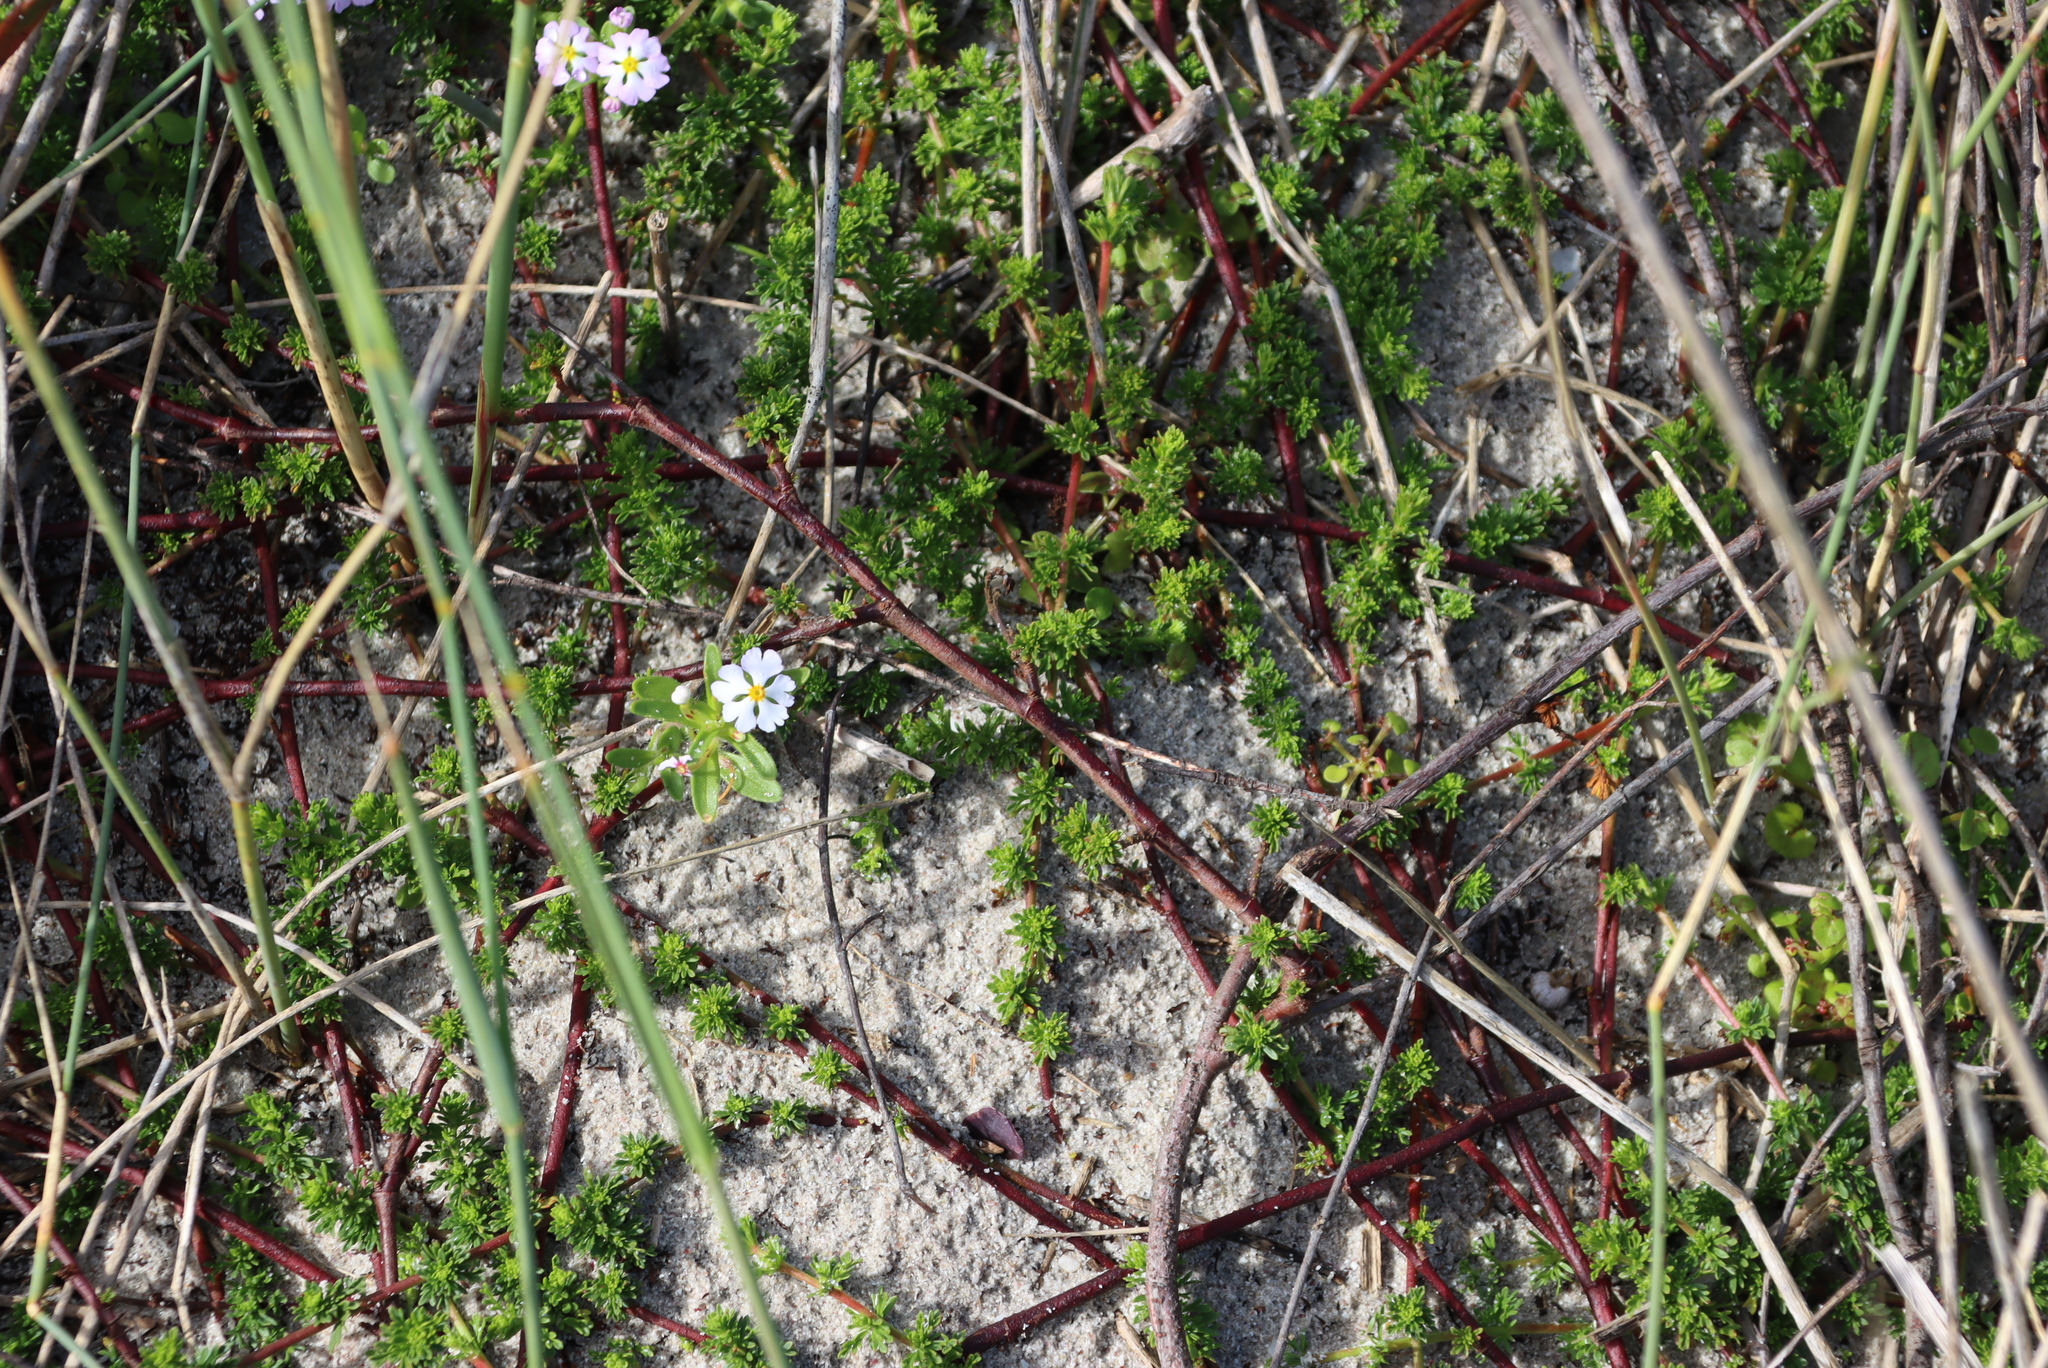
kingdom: Plantae
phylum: Tracheophyta
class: Magnoliopsida
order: Lamiales
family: Scrophulariaceae
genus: Zaluzianskya
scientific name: Zaluzianskya villosa
